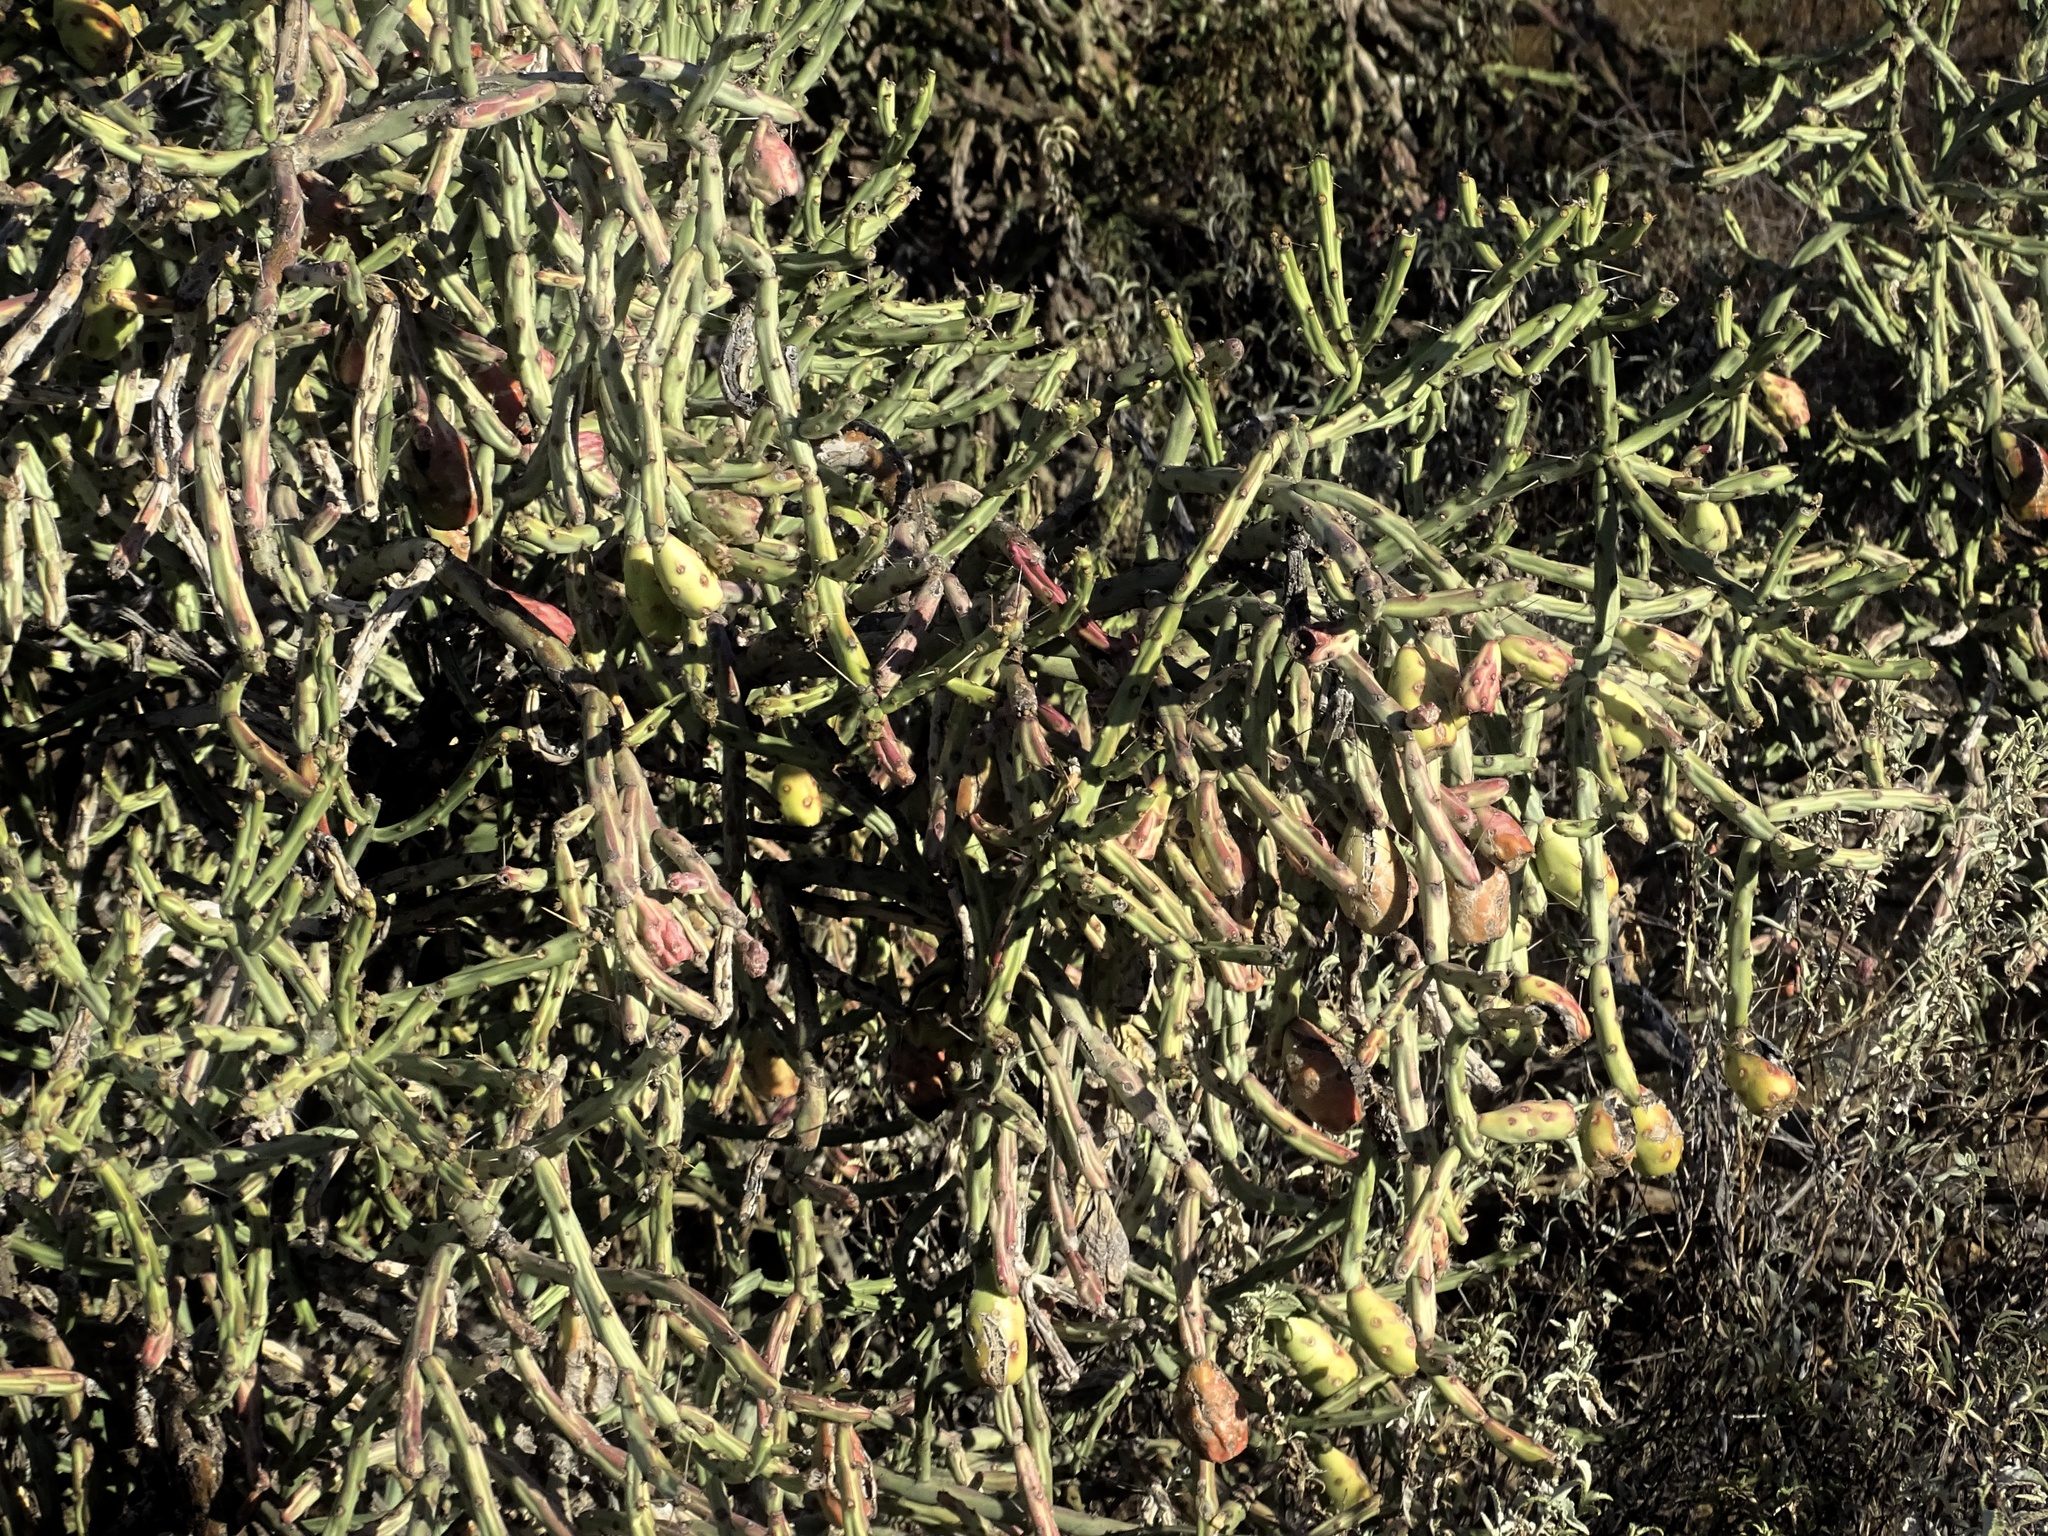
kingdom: Plantae
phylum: Tracheophyta
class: Magnoliopsida
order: Caryophyllales
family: Cactaceae
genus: Cylindropuntia
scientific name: Cylindropuntia arbuscula
